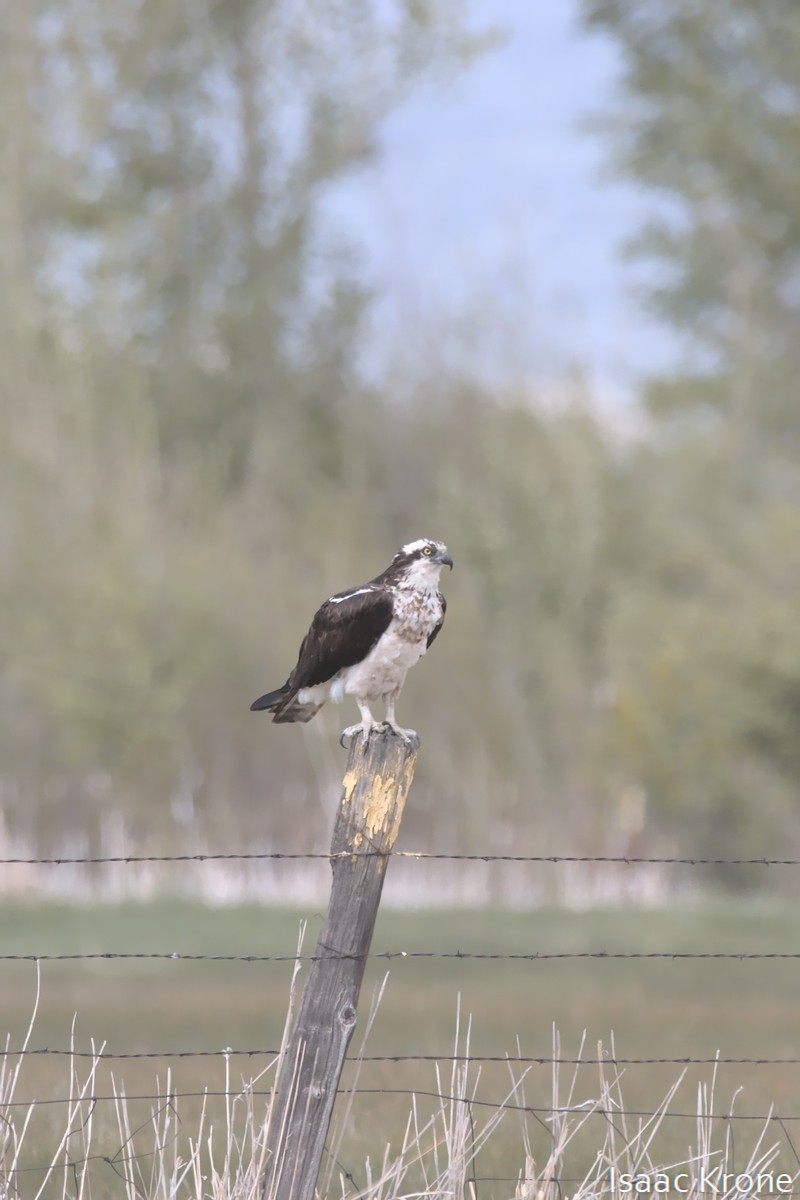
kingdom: Animalia
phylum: Chordata
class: Aves
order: Accipitriformes
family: Pandionidae
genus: Pandion
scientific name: Pandion haliaetus
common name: Osprey
